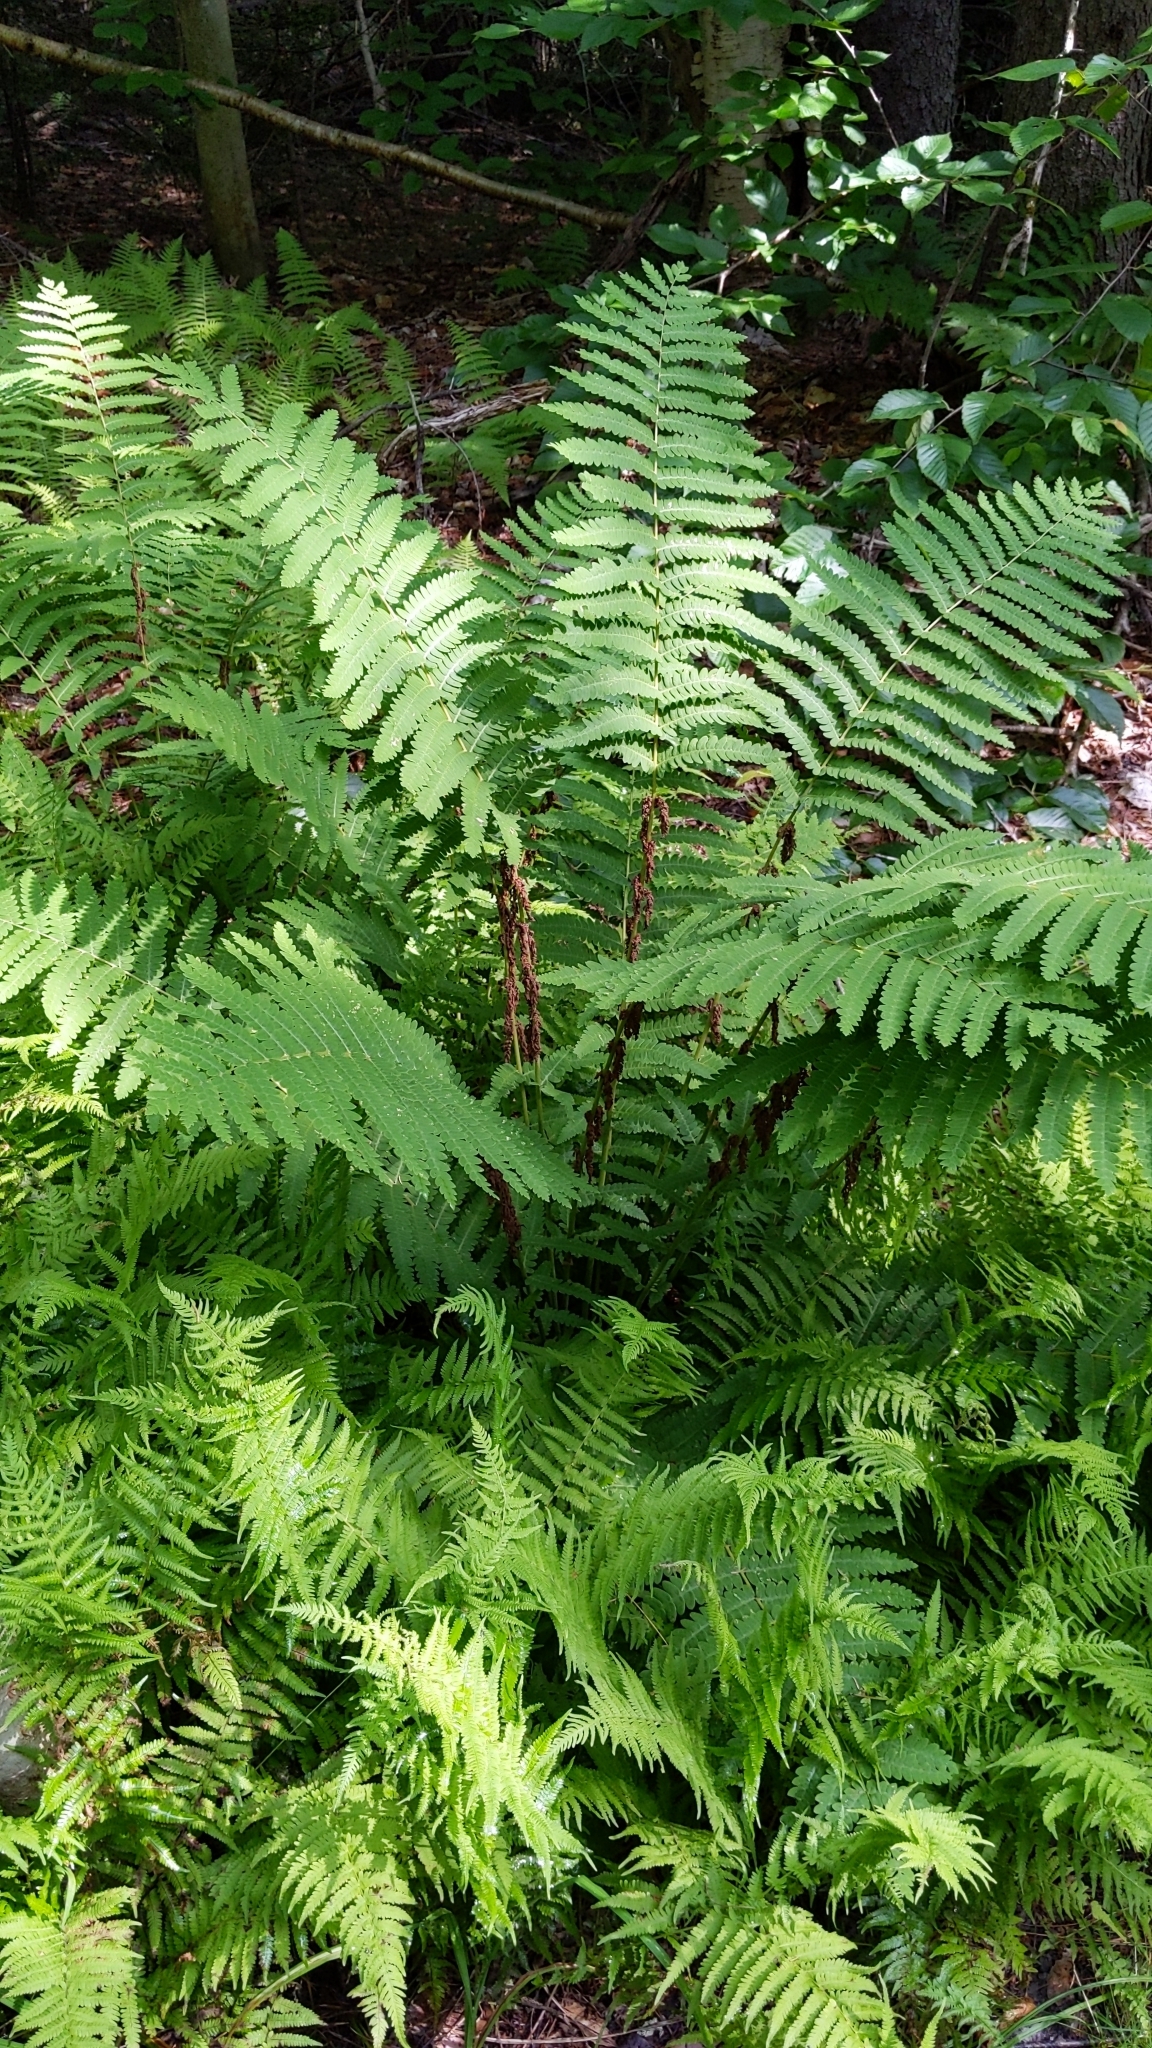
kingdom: Plantae
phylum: Tracheophyta
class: Polypodiopsida
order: Osmundales
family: Osmundaceae
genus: Claytosmunda
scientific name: Claytosmunda claytoniana
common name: Clayton's fern
